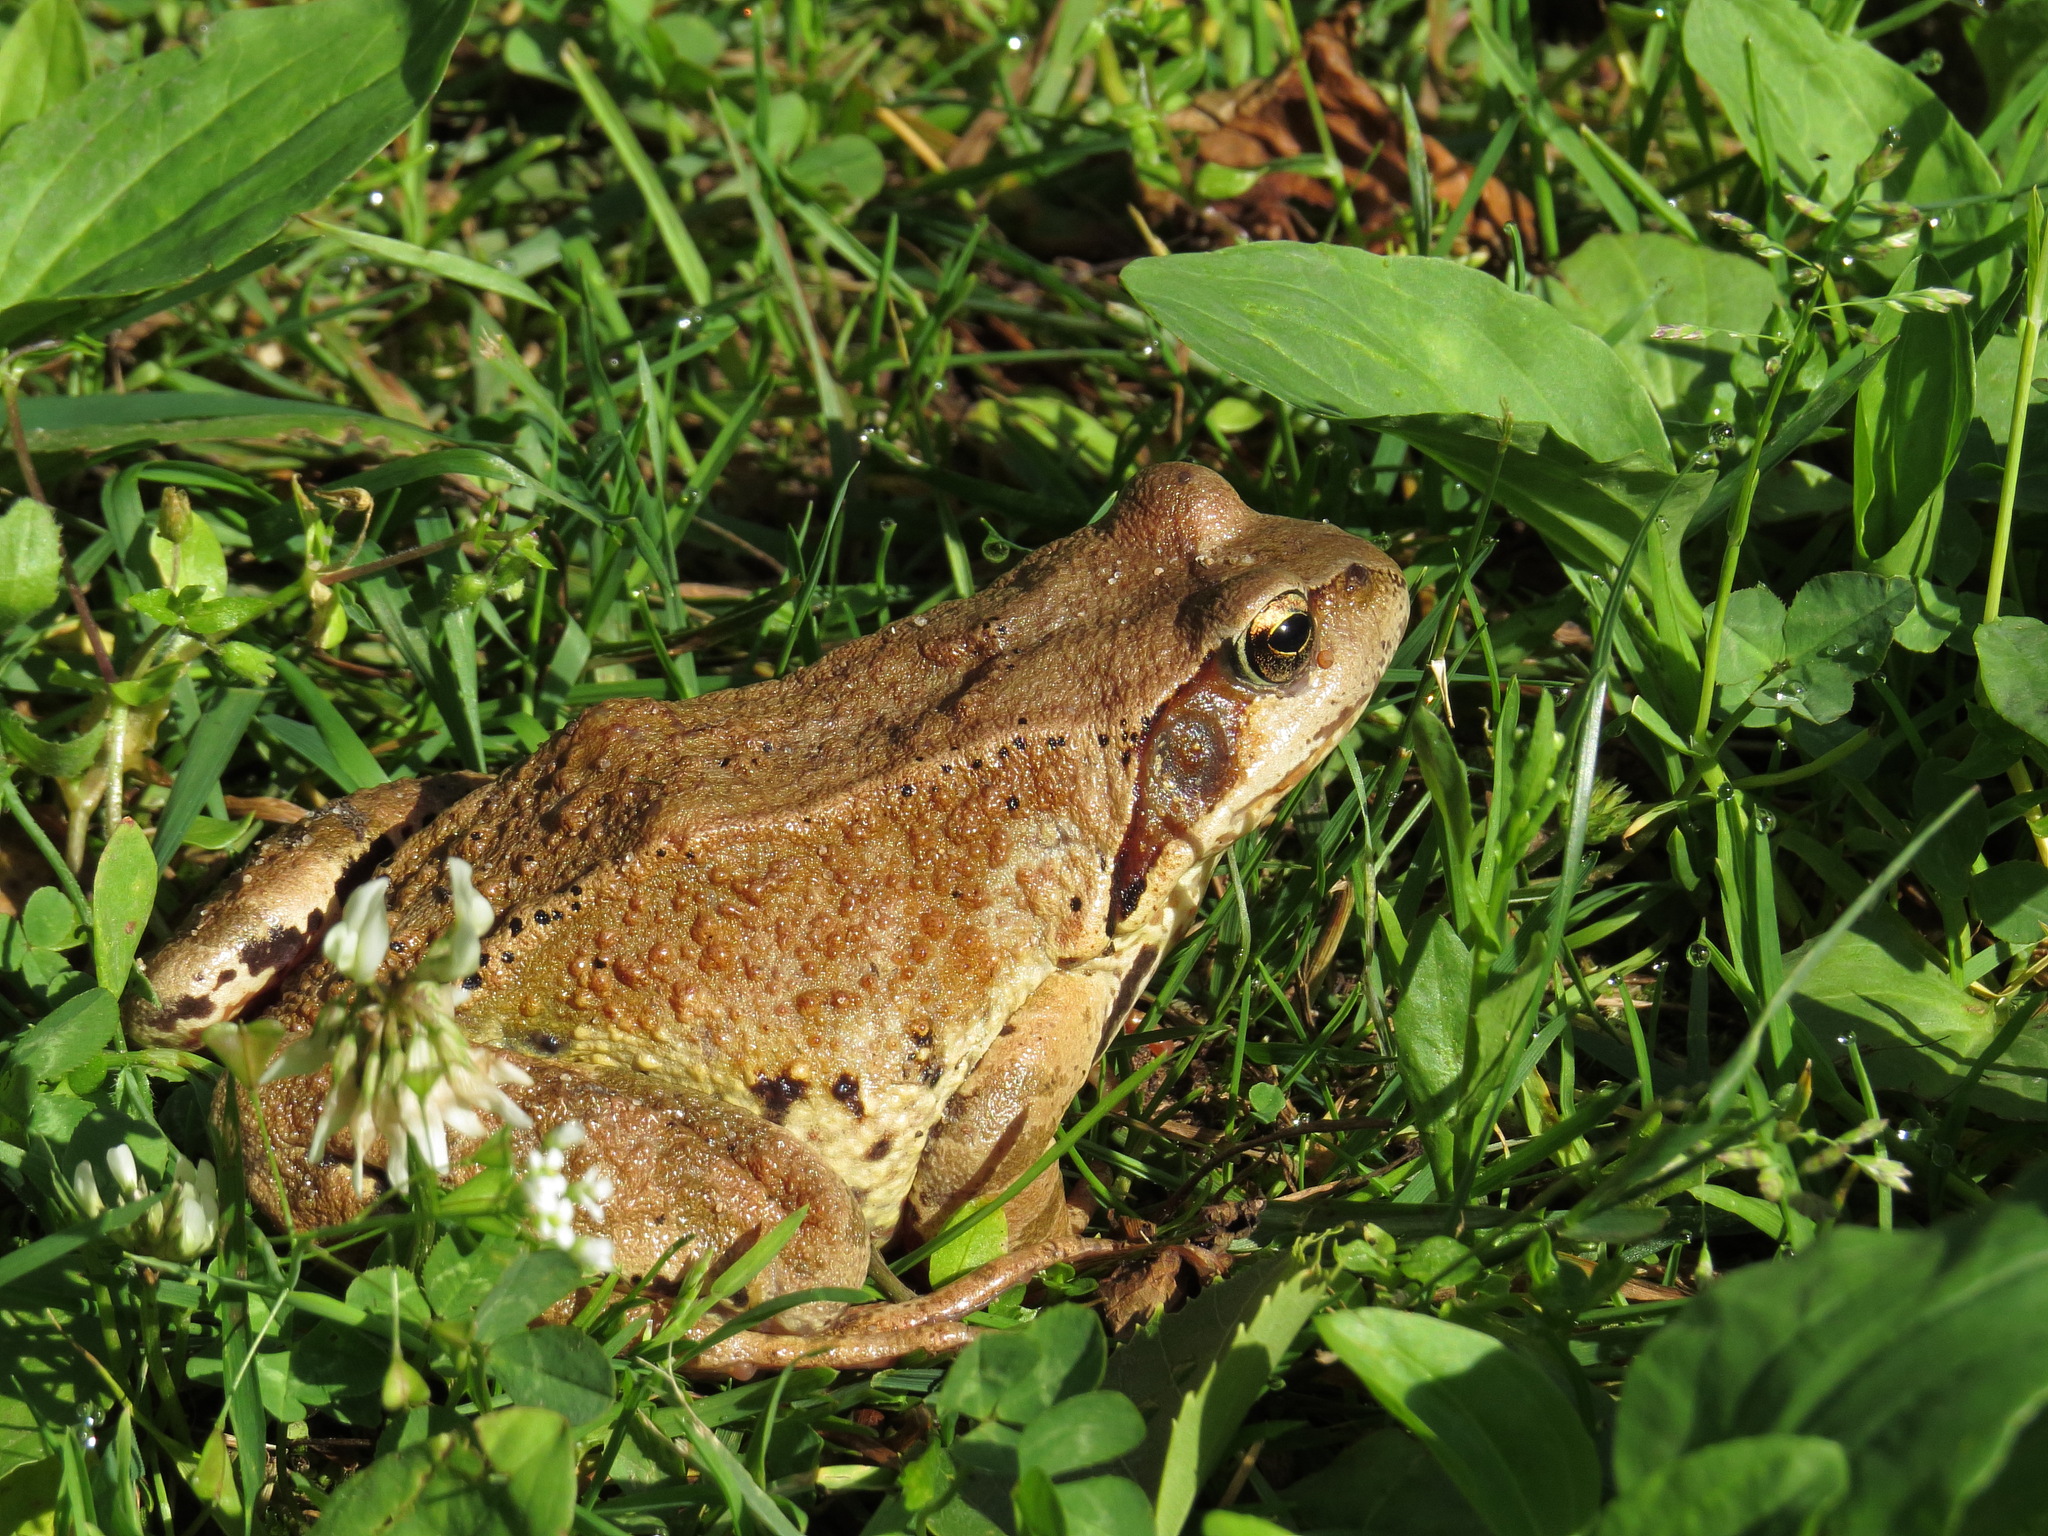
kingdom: Animalia
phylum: Chordata
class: Amphibia
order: Anura
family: Ranidae
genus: Rana
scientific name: Rana temporaria
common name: Common frog
